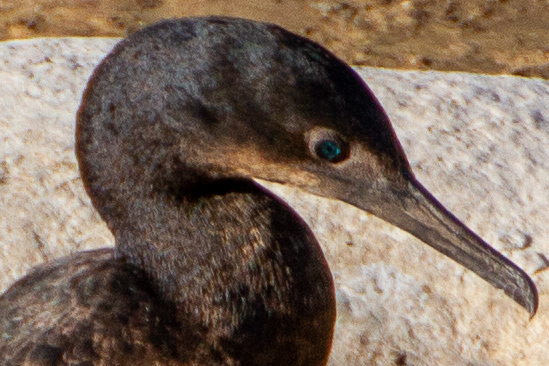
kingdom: Animalia
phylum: Chordata
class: Aves
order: Suliformes
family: Phalacrocoracidae
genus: Urile
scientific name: Urile penicillatus
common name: Brandt's cormorant
